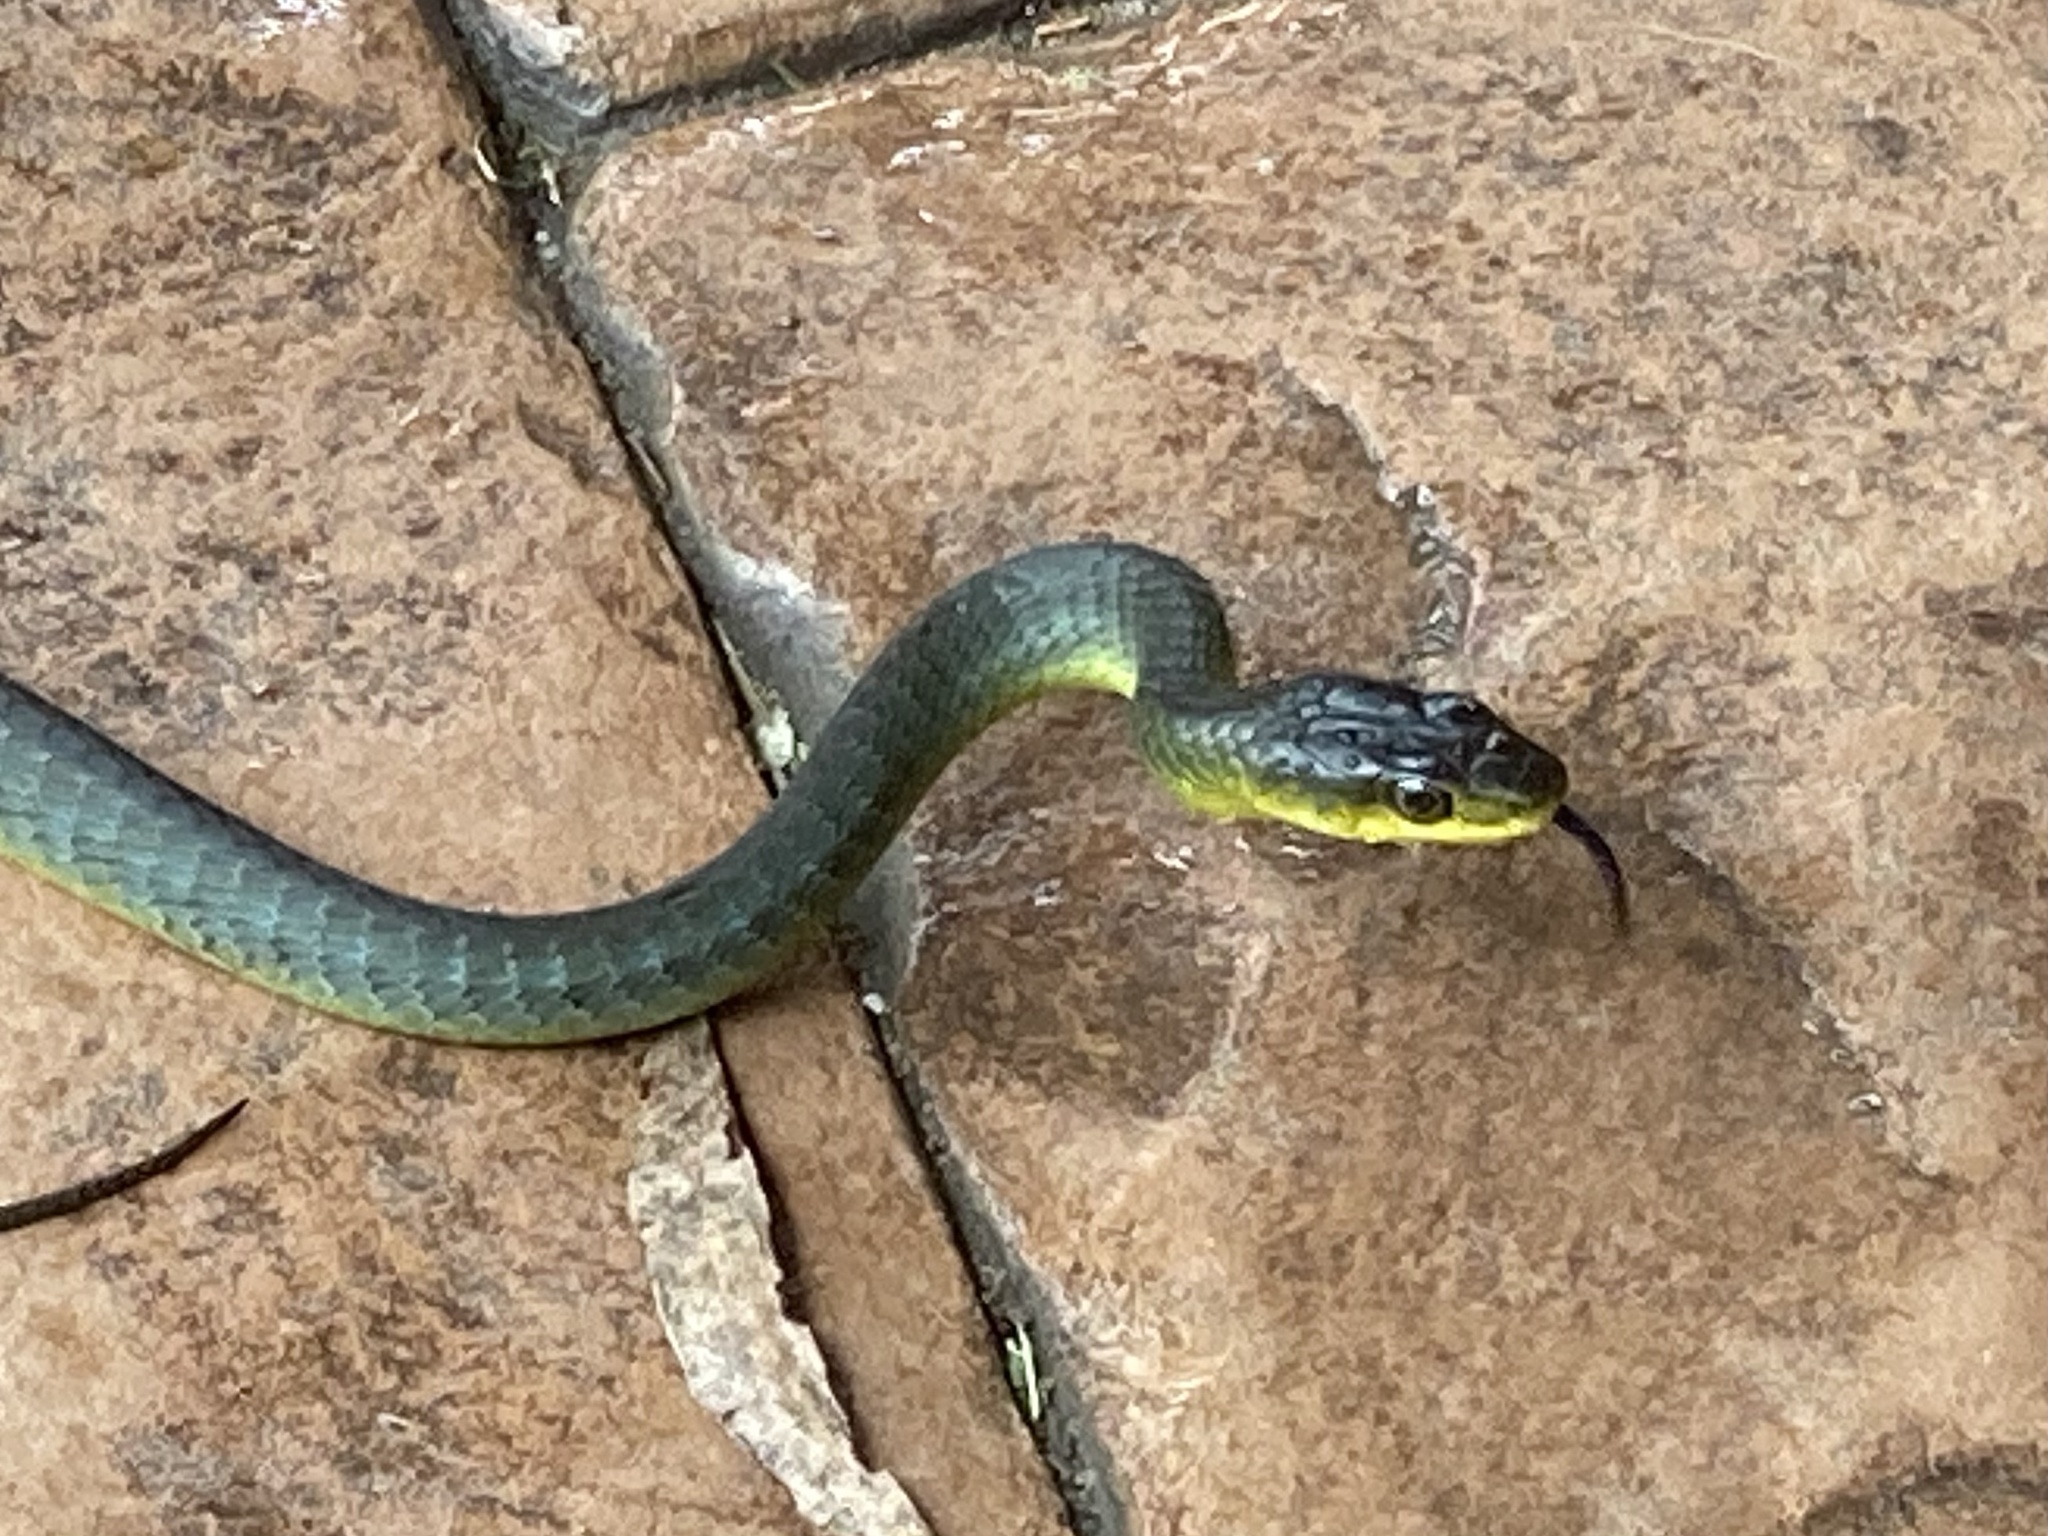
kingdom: Animalia
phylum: Chordata
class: Squamata
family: Colubridae
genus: Dendrelaphis
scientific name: Dendrelaphis punctulatus
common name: Common tree snake
